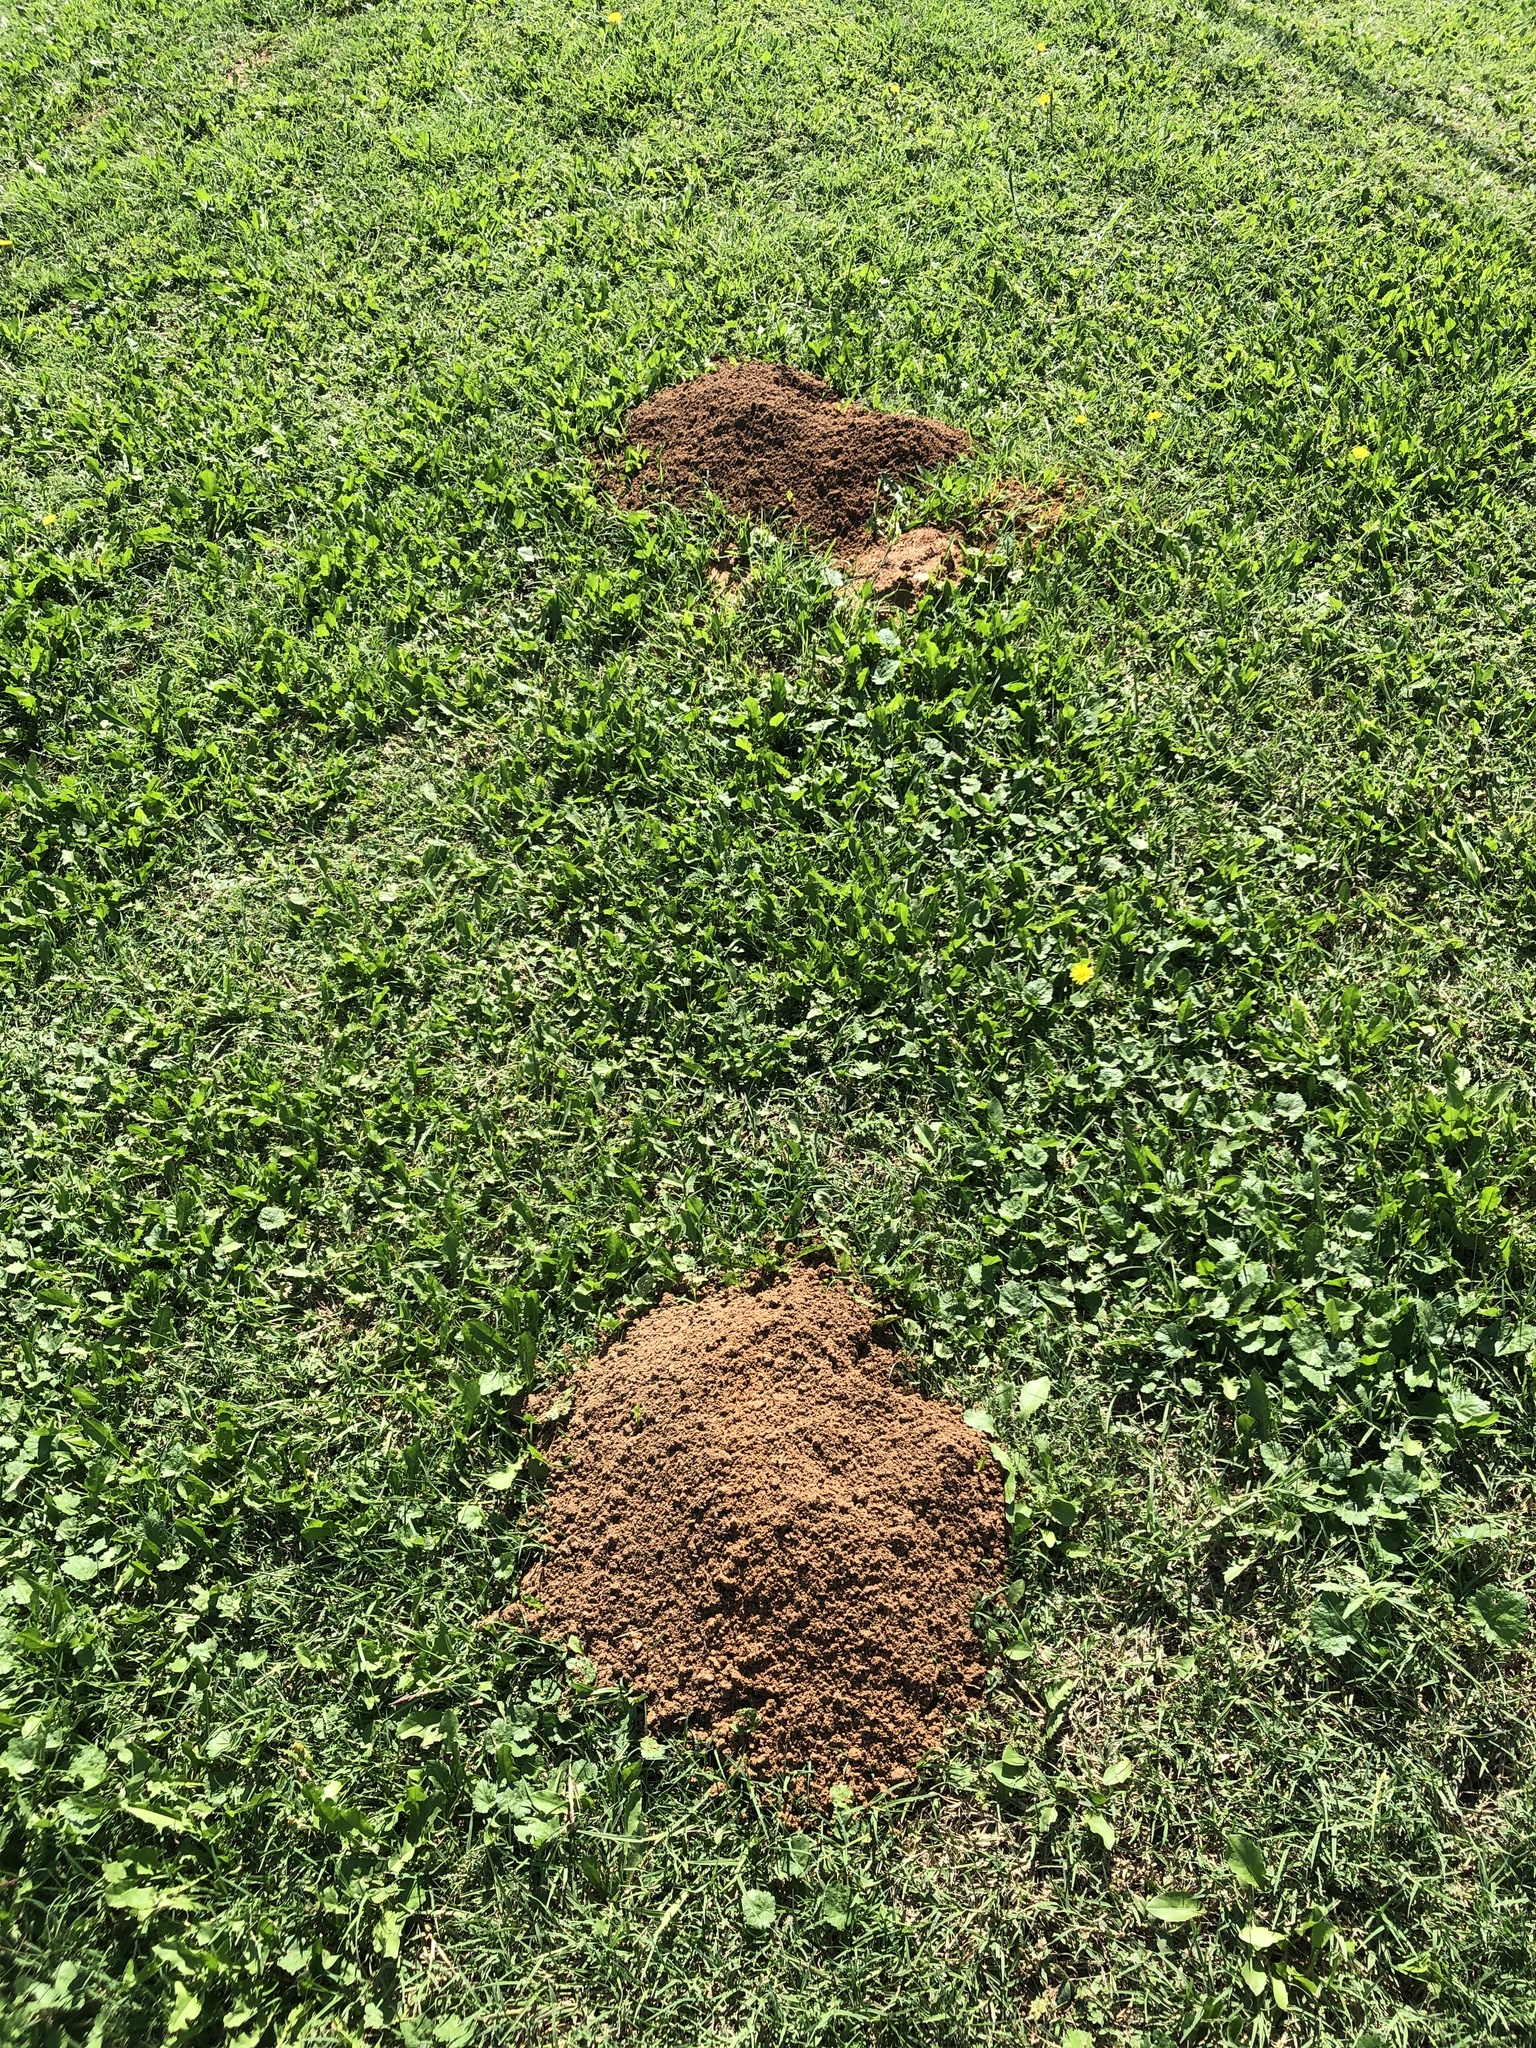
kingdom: Animalia
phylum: Chordata
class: Mammalia
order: Rodentia
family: Geomyidae
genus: Geomys
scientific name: Geomys bursarius
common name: Plains pocket gopher
